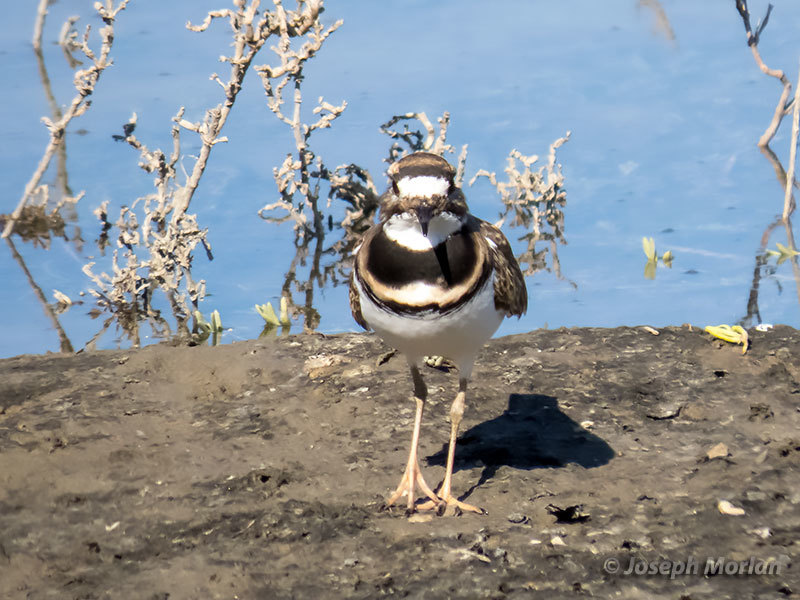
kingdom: Animalia
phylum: Chordata
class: Aves
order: Charadriiformes
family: Charadriidae
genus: Charadrius
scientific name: Charadrius vociferus
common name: Killdeer
